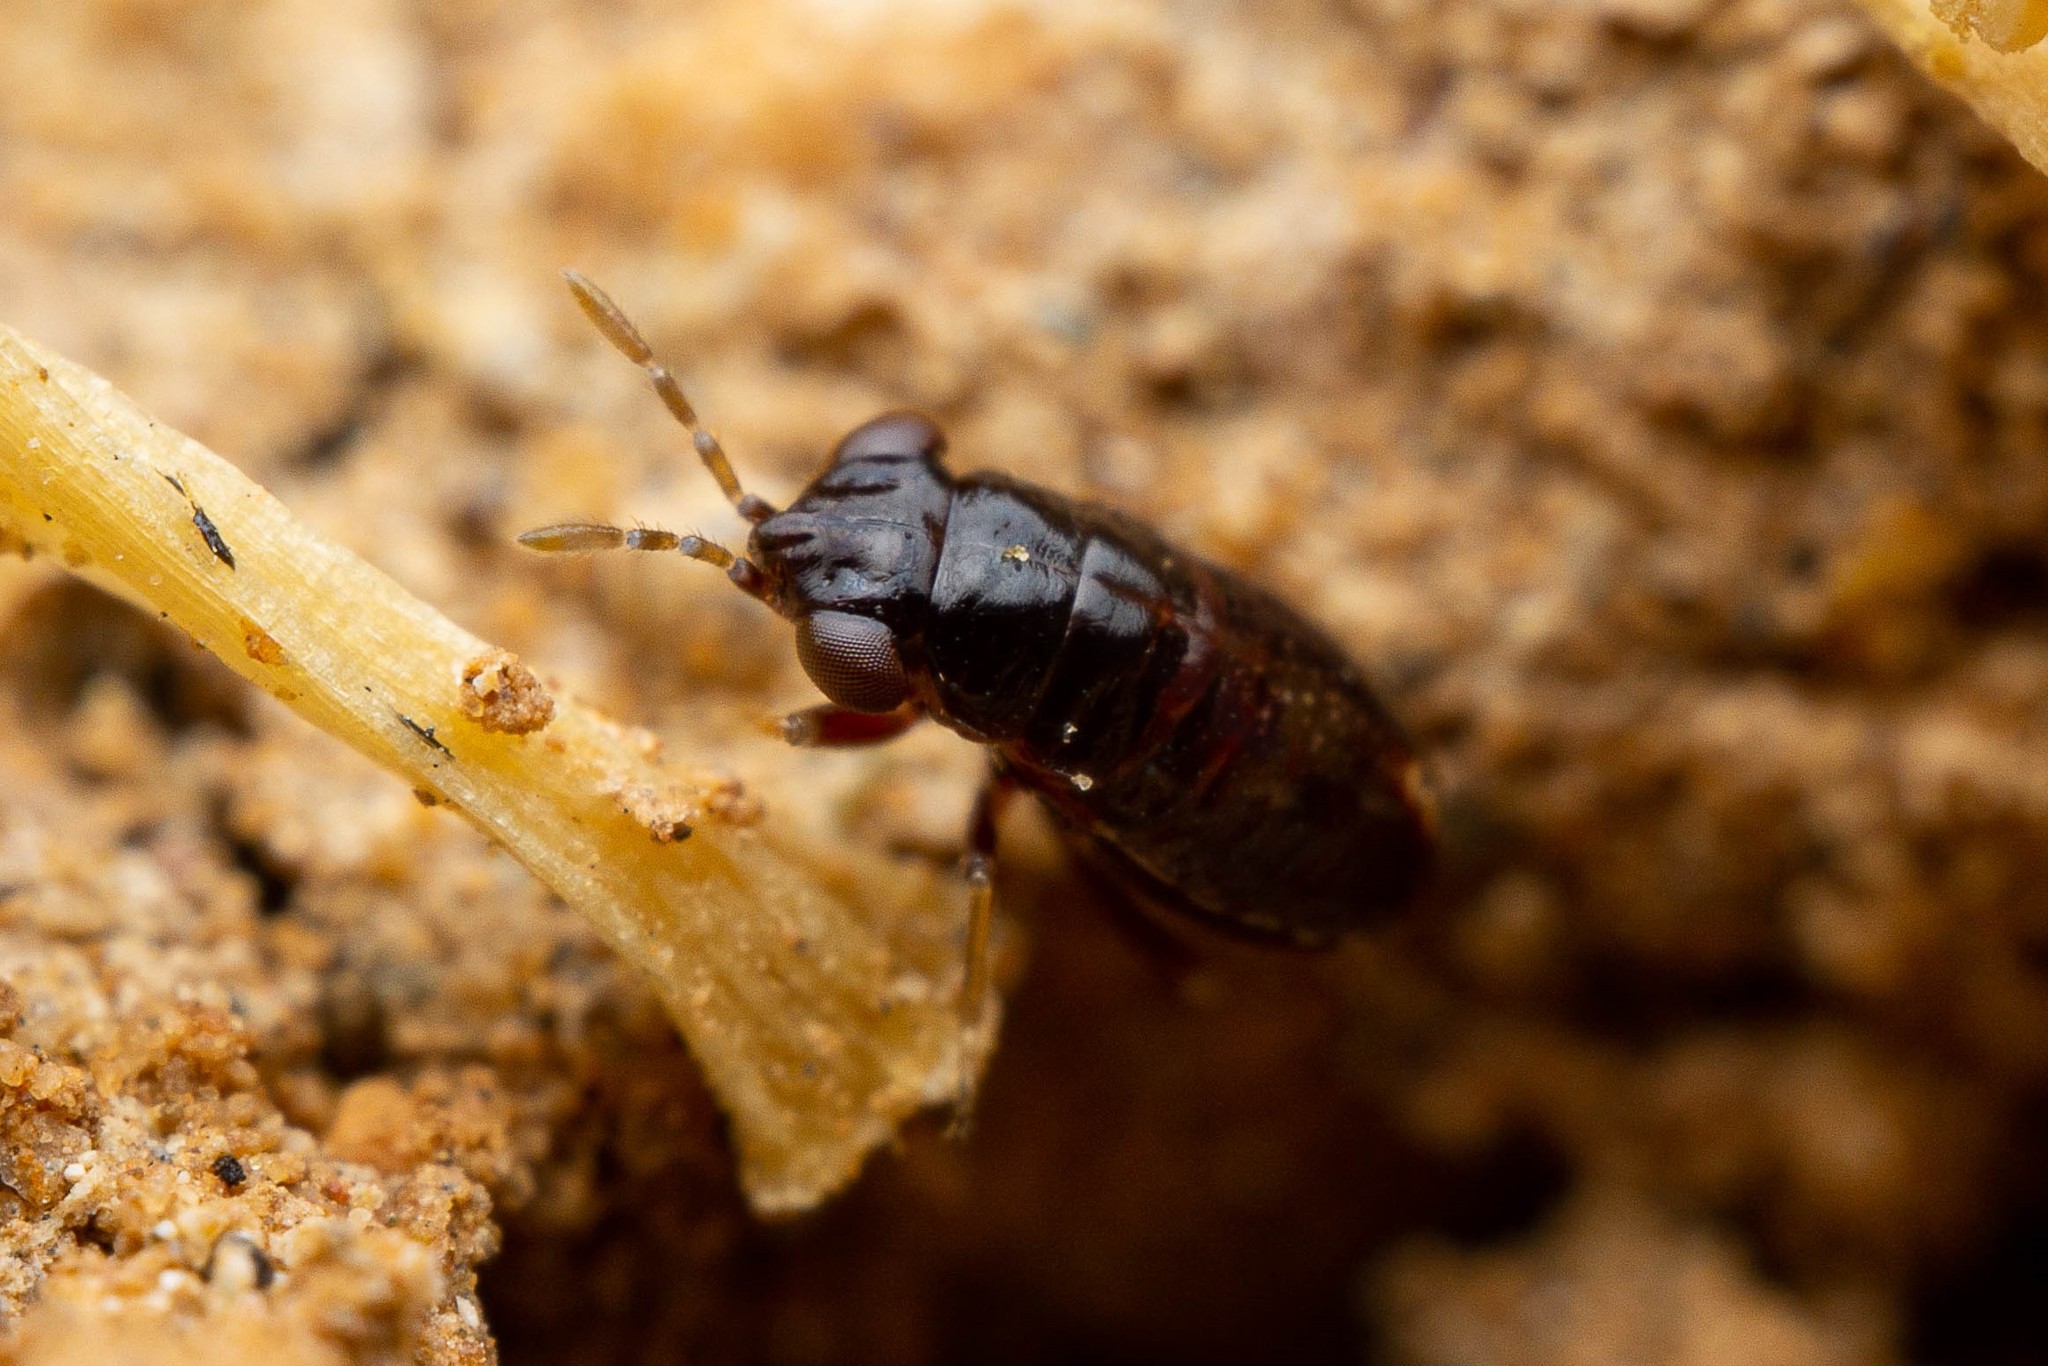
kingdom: Animalia
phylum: Arthropoda
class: Insecta
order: Hemiptera
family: Geocoridae
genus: Geocoris
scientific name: Geocoris uliginosus
